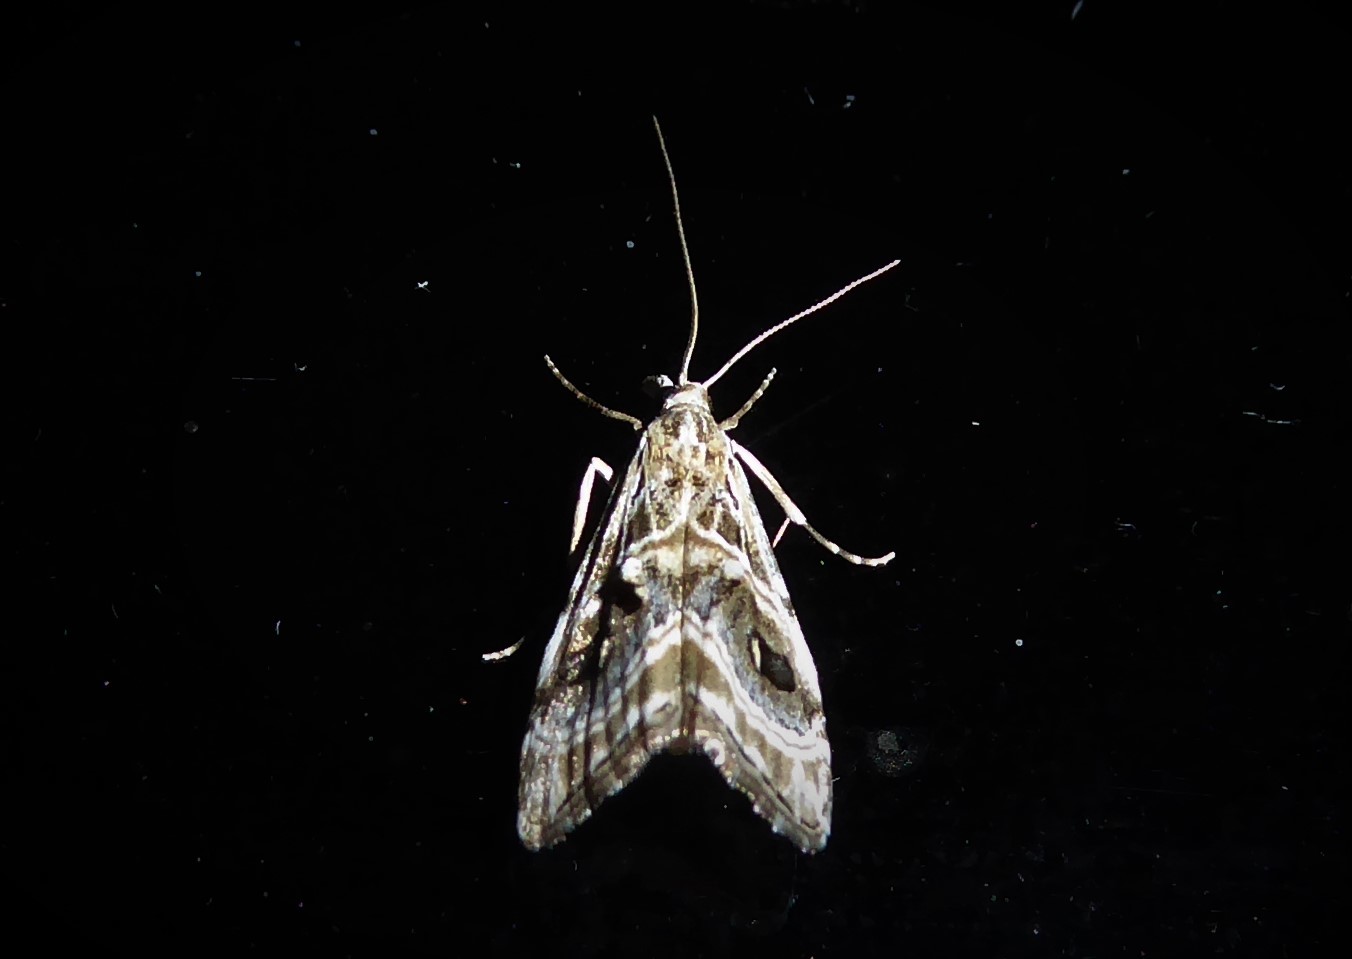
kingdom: Animalia
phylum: Arthropoda
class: Insecta
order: Lepidoptera
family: Crambidae
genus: Gadira
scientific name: Gadira acerella
